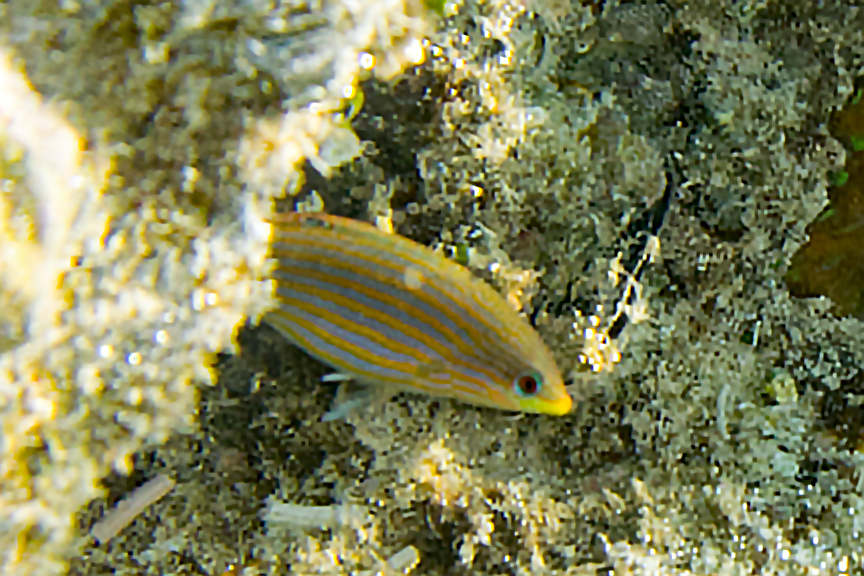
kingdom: Animalia
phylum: Chordata
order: Perciformes
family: Labridae
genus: Halichoeres
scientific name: Halichoeres melanurus
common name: Hoeven's wrasse
